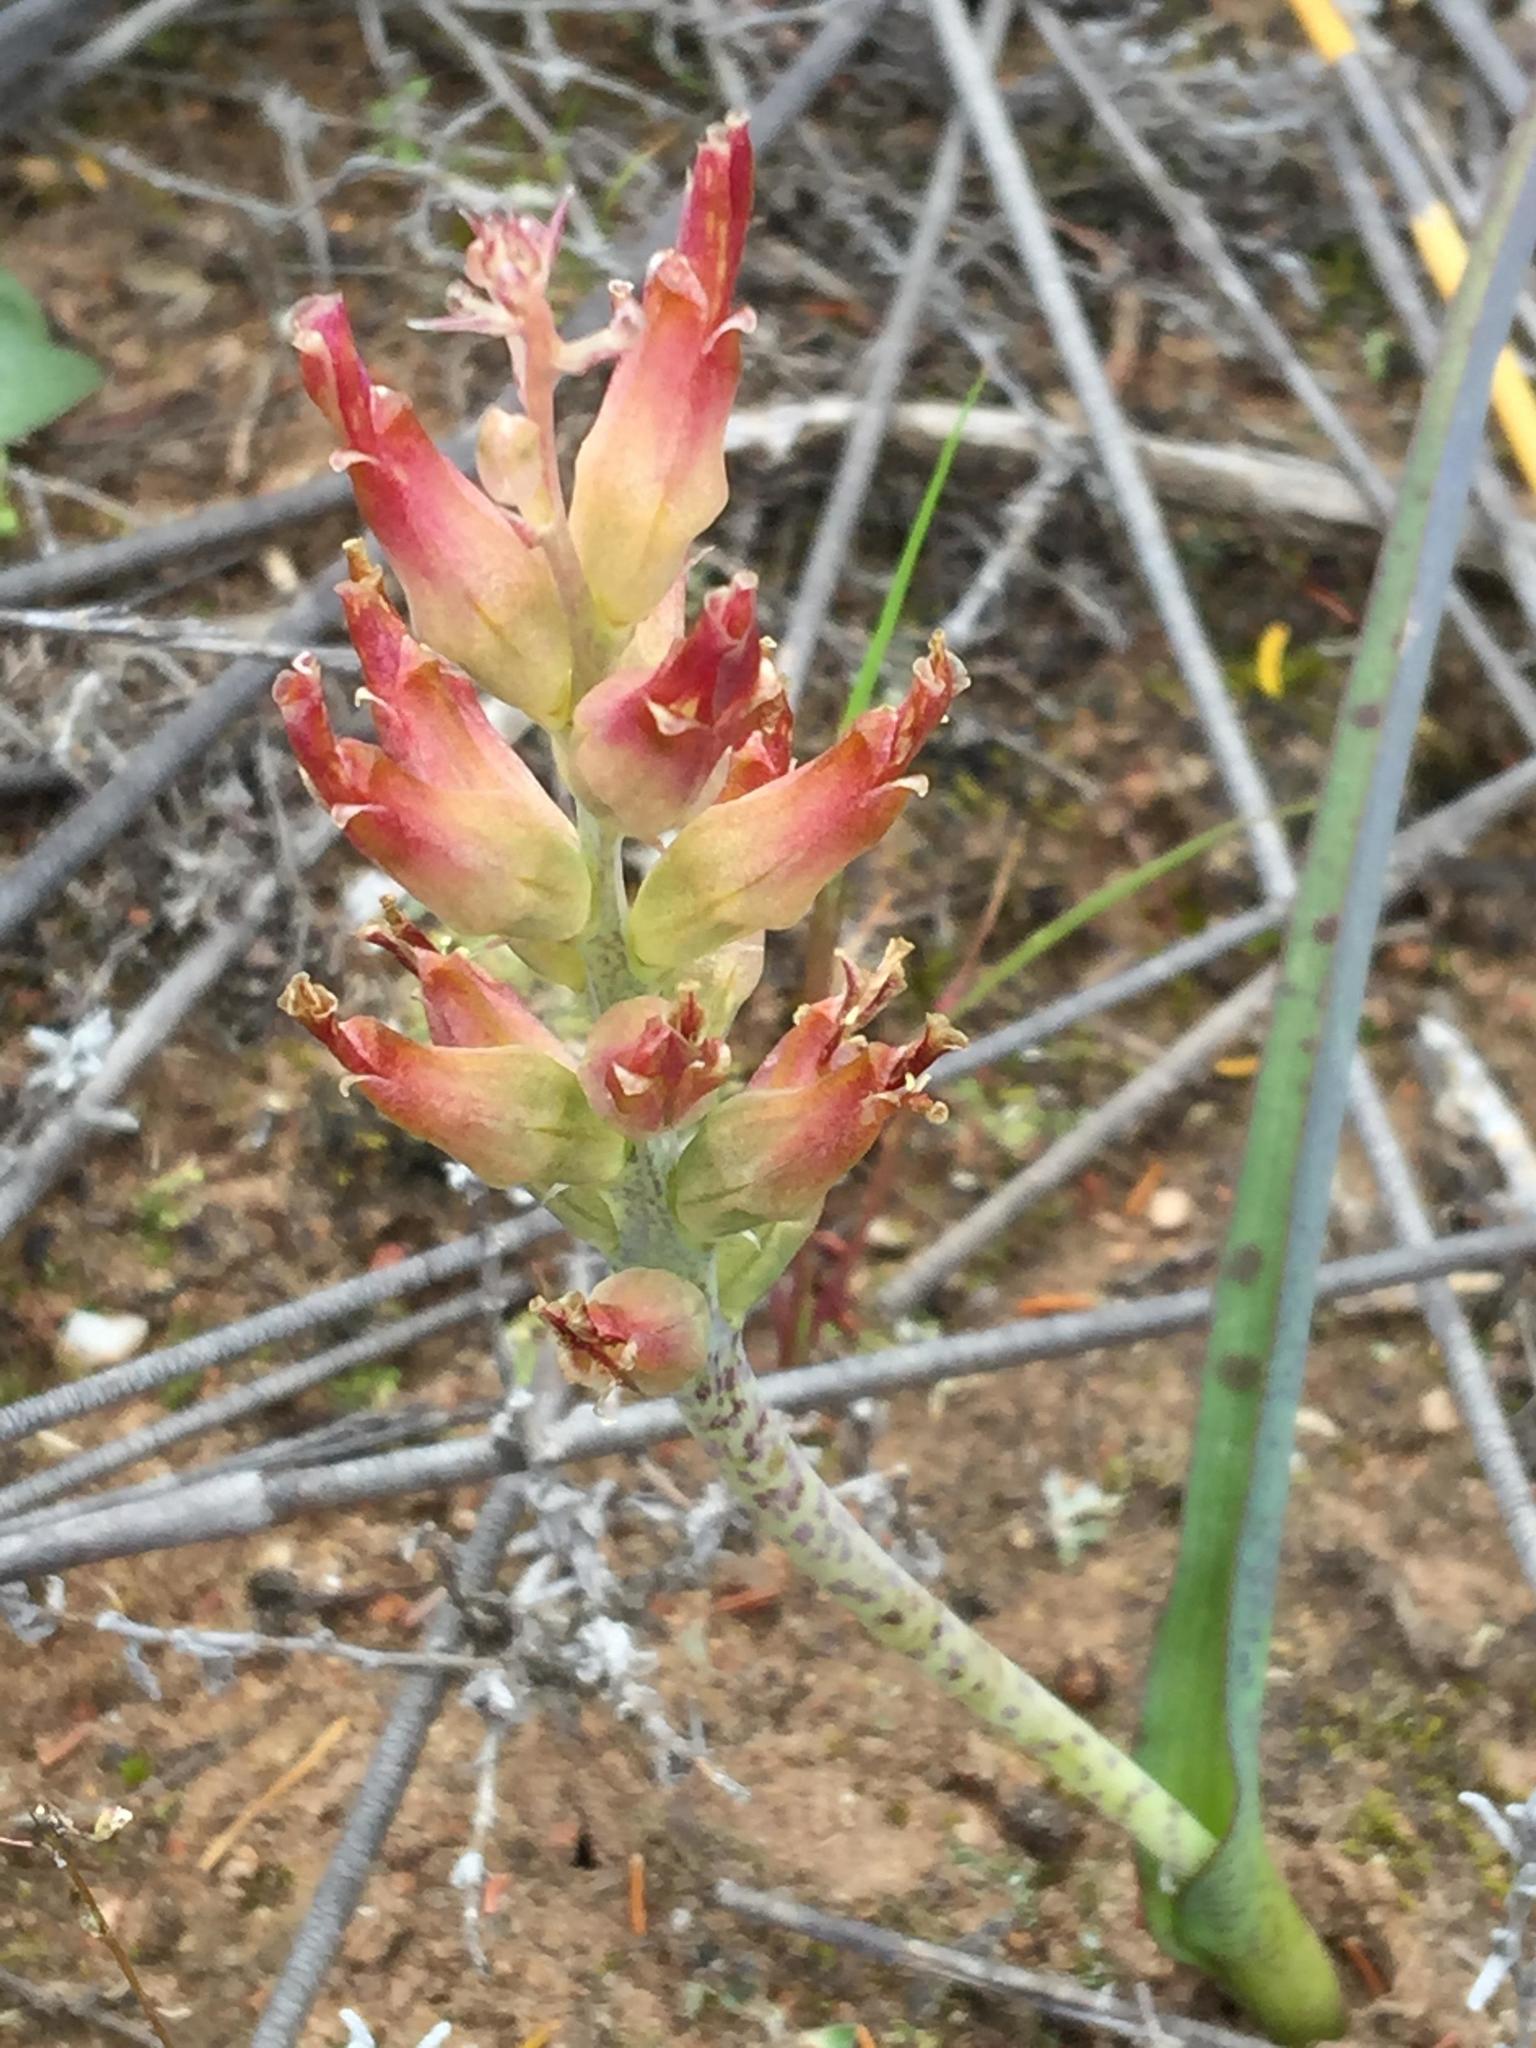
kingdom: Plantae
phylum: Tracheophyta
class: Liliopsida
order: Asparagales
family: Asparagaceae
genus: Lachenalia
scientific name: Lachenalia orchioides
